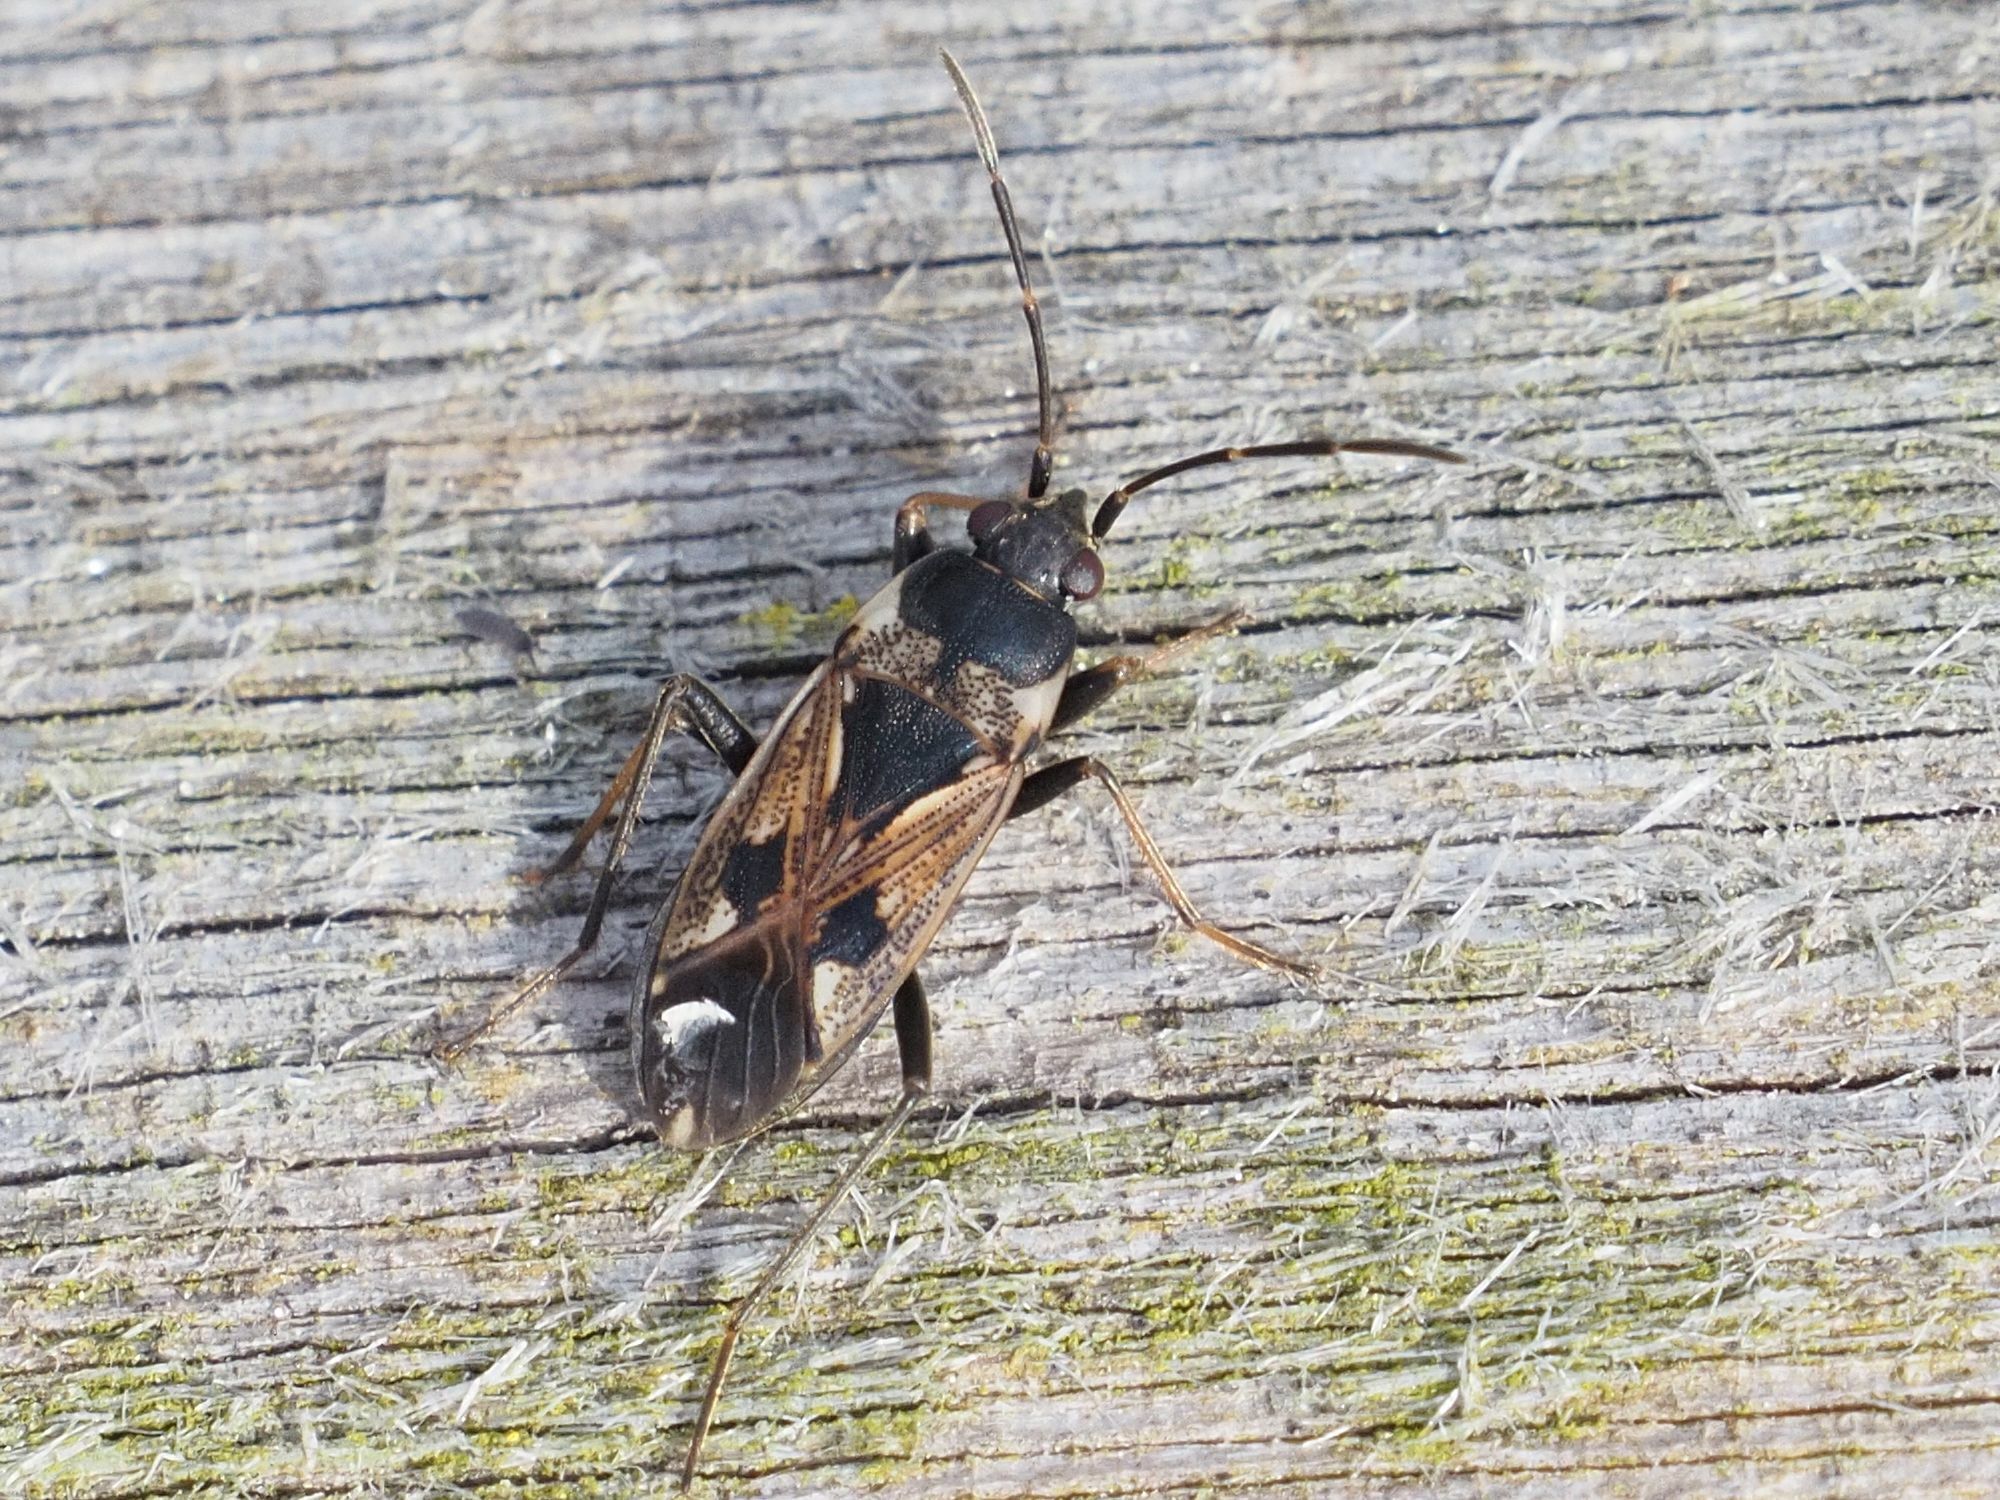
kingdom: Animalia
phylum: Arthropoda
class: Insecta
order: Hemiptera
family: Rhyparochromidae
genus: Rhyparochromus
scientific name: Rhyparochromus vulgaris
